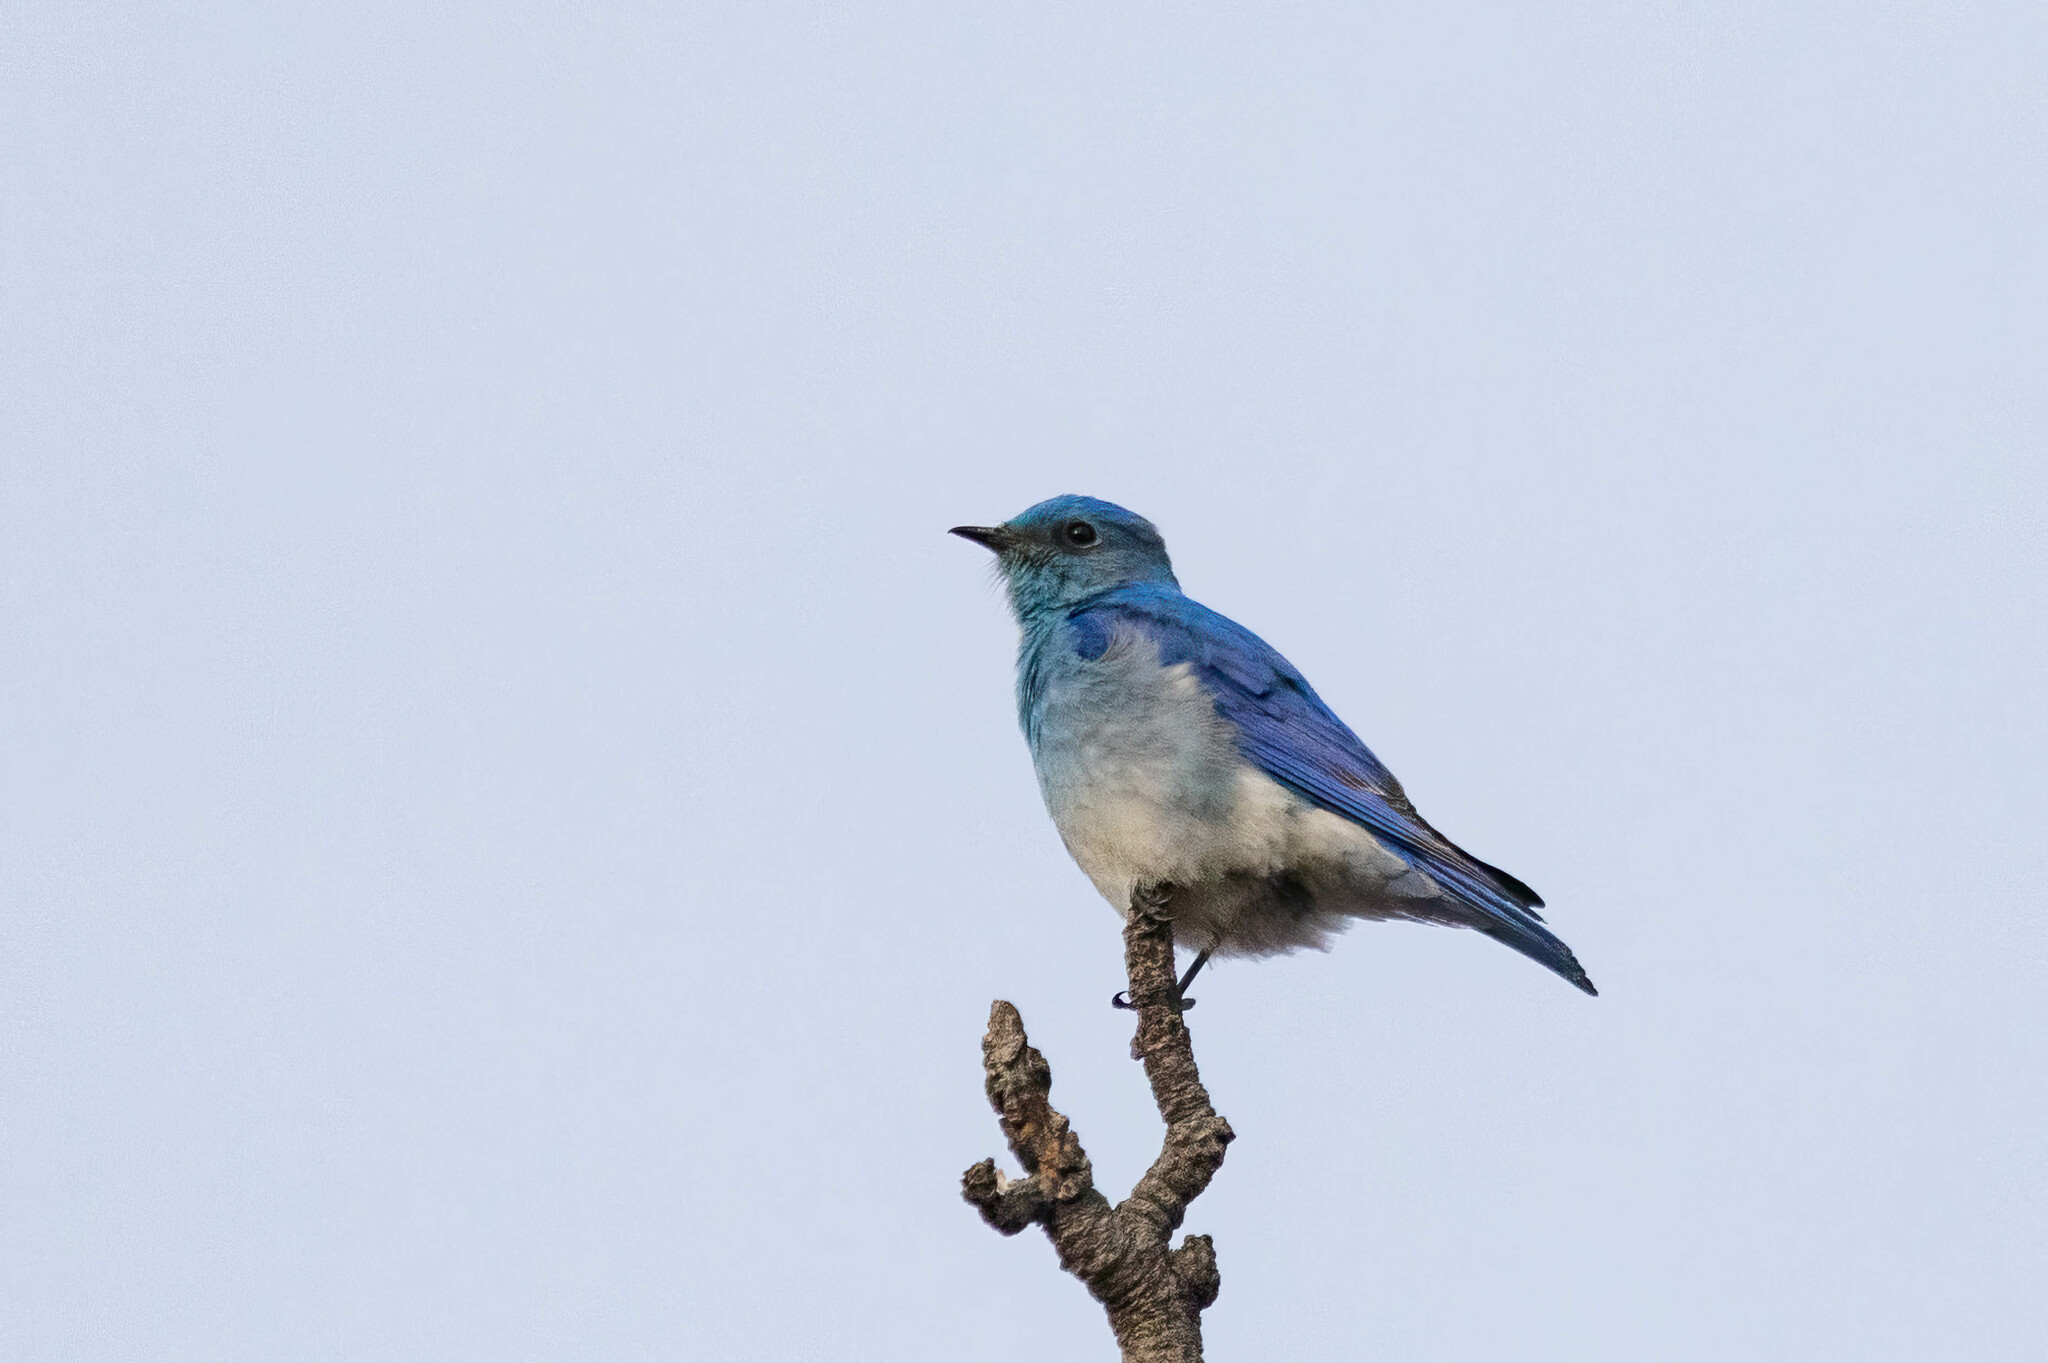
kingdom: Animalia
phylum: Chordata
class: Aves
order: Passeriformes
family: Turdidae
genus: Sialia
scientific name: Sialia currucoides
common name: Mountain bluebird
